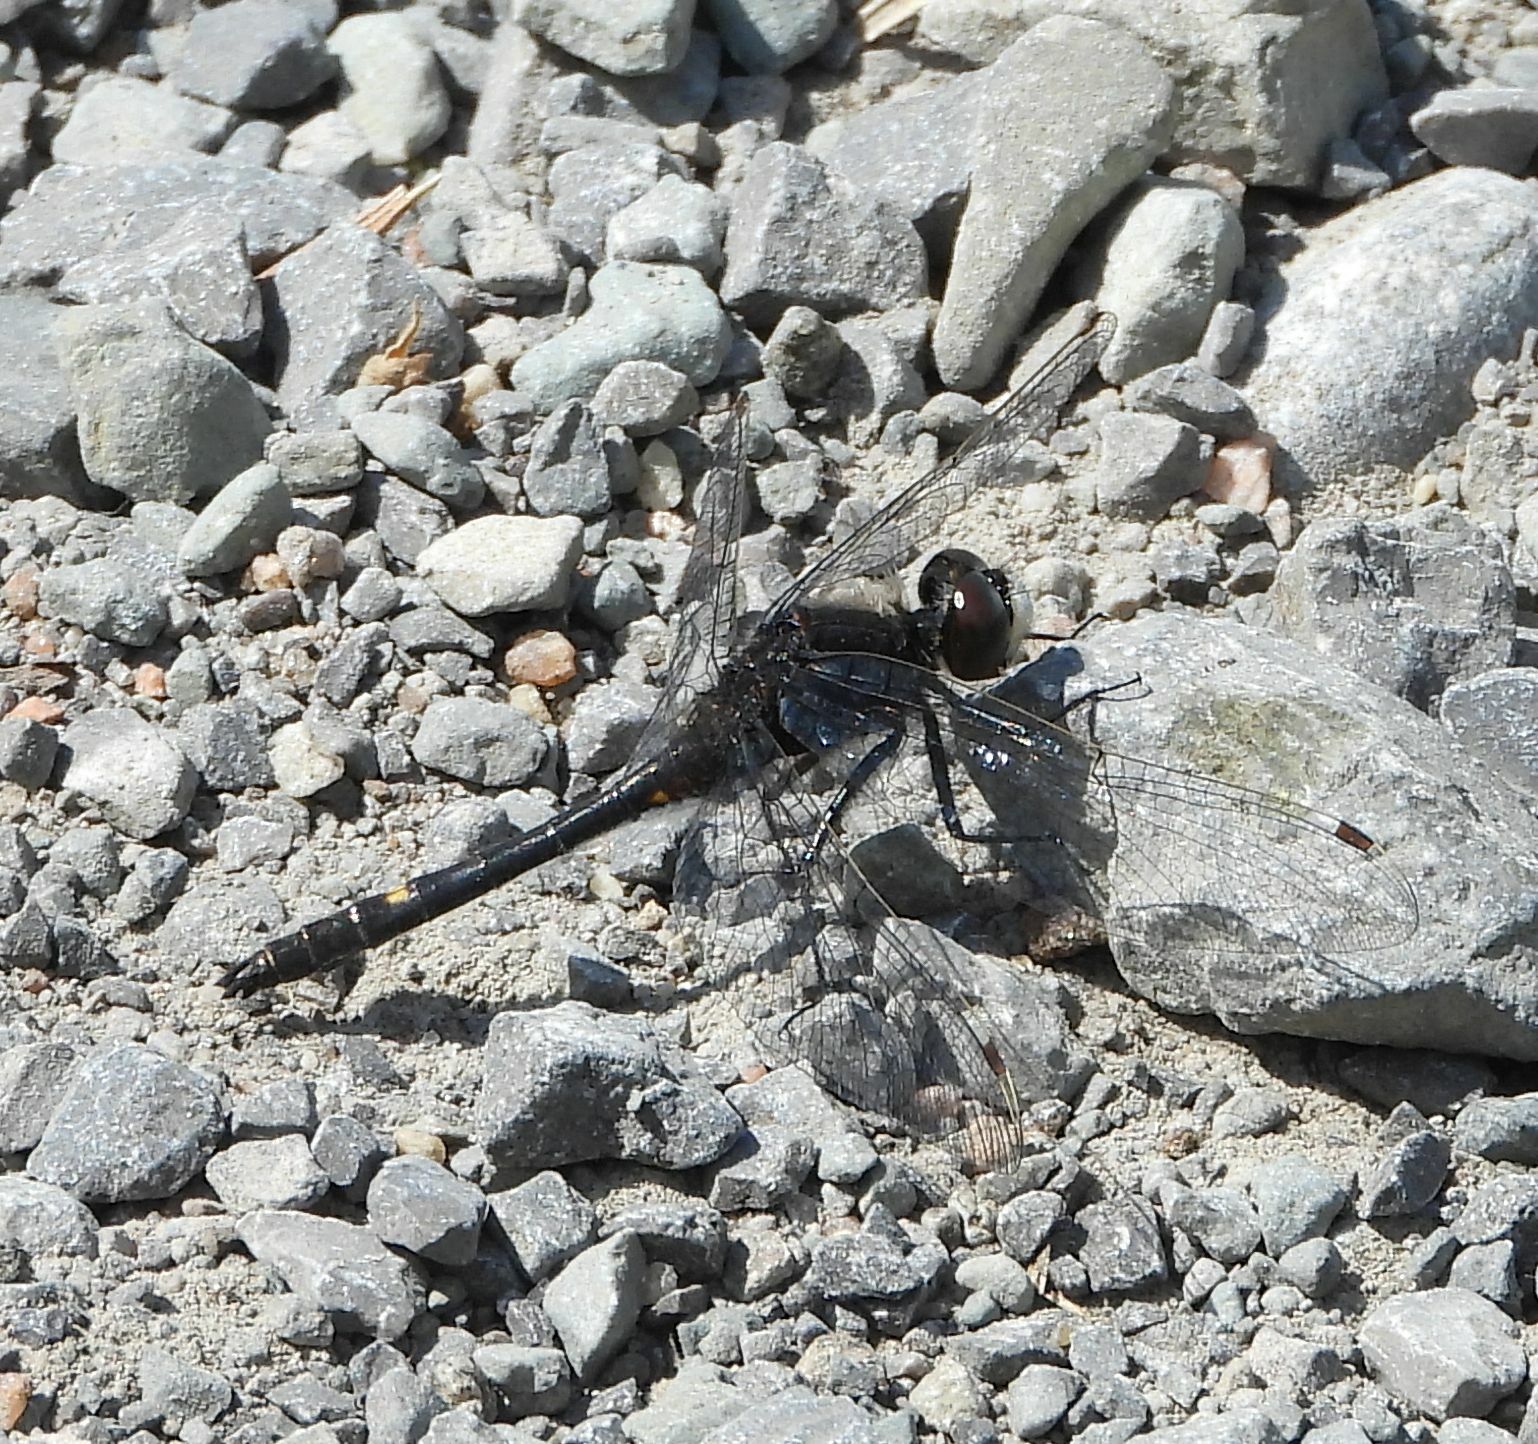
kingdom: Animalia
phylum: Arthropoda
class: Insecta
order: Odonata
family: Libellulidae
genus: Leucorrhinia
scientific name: Leucorrhinia intacta
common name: Dot-tailed whiteface
